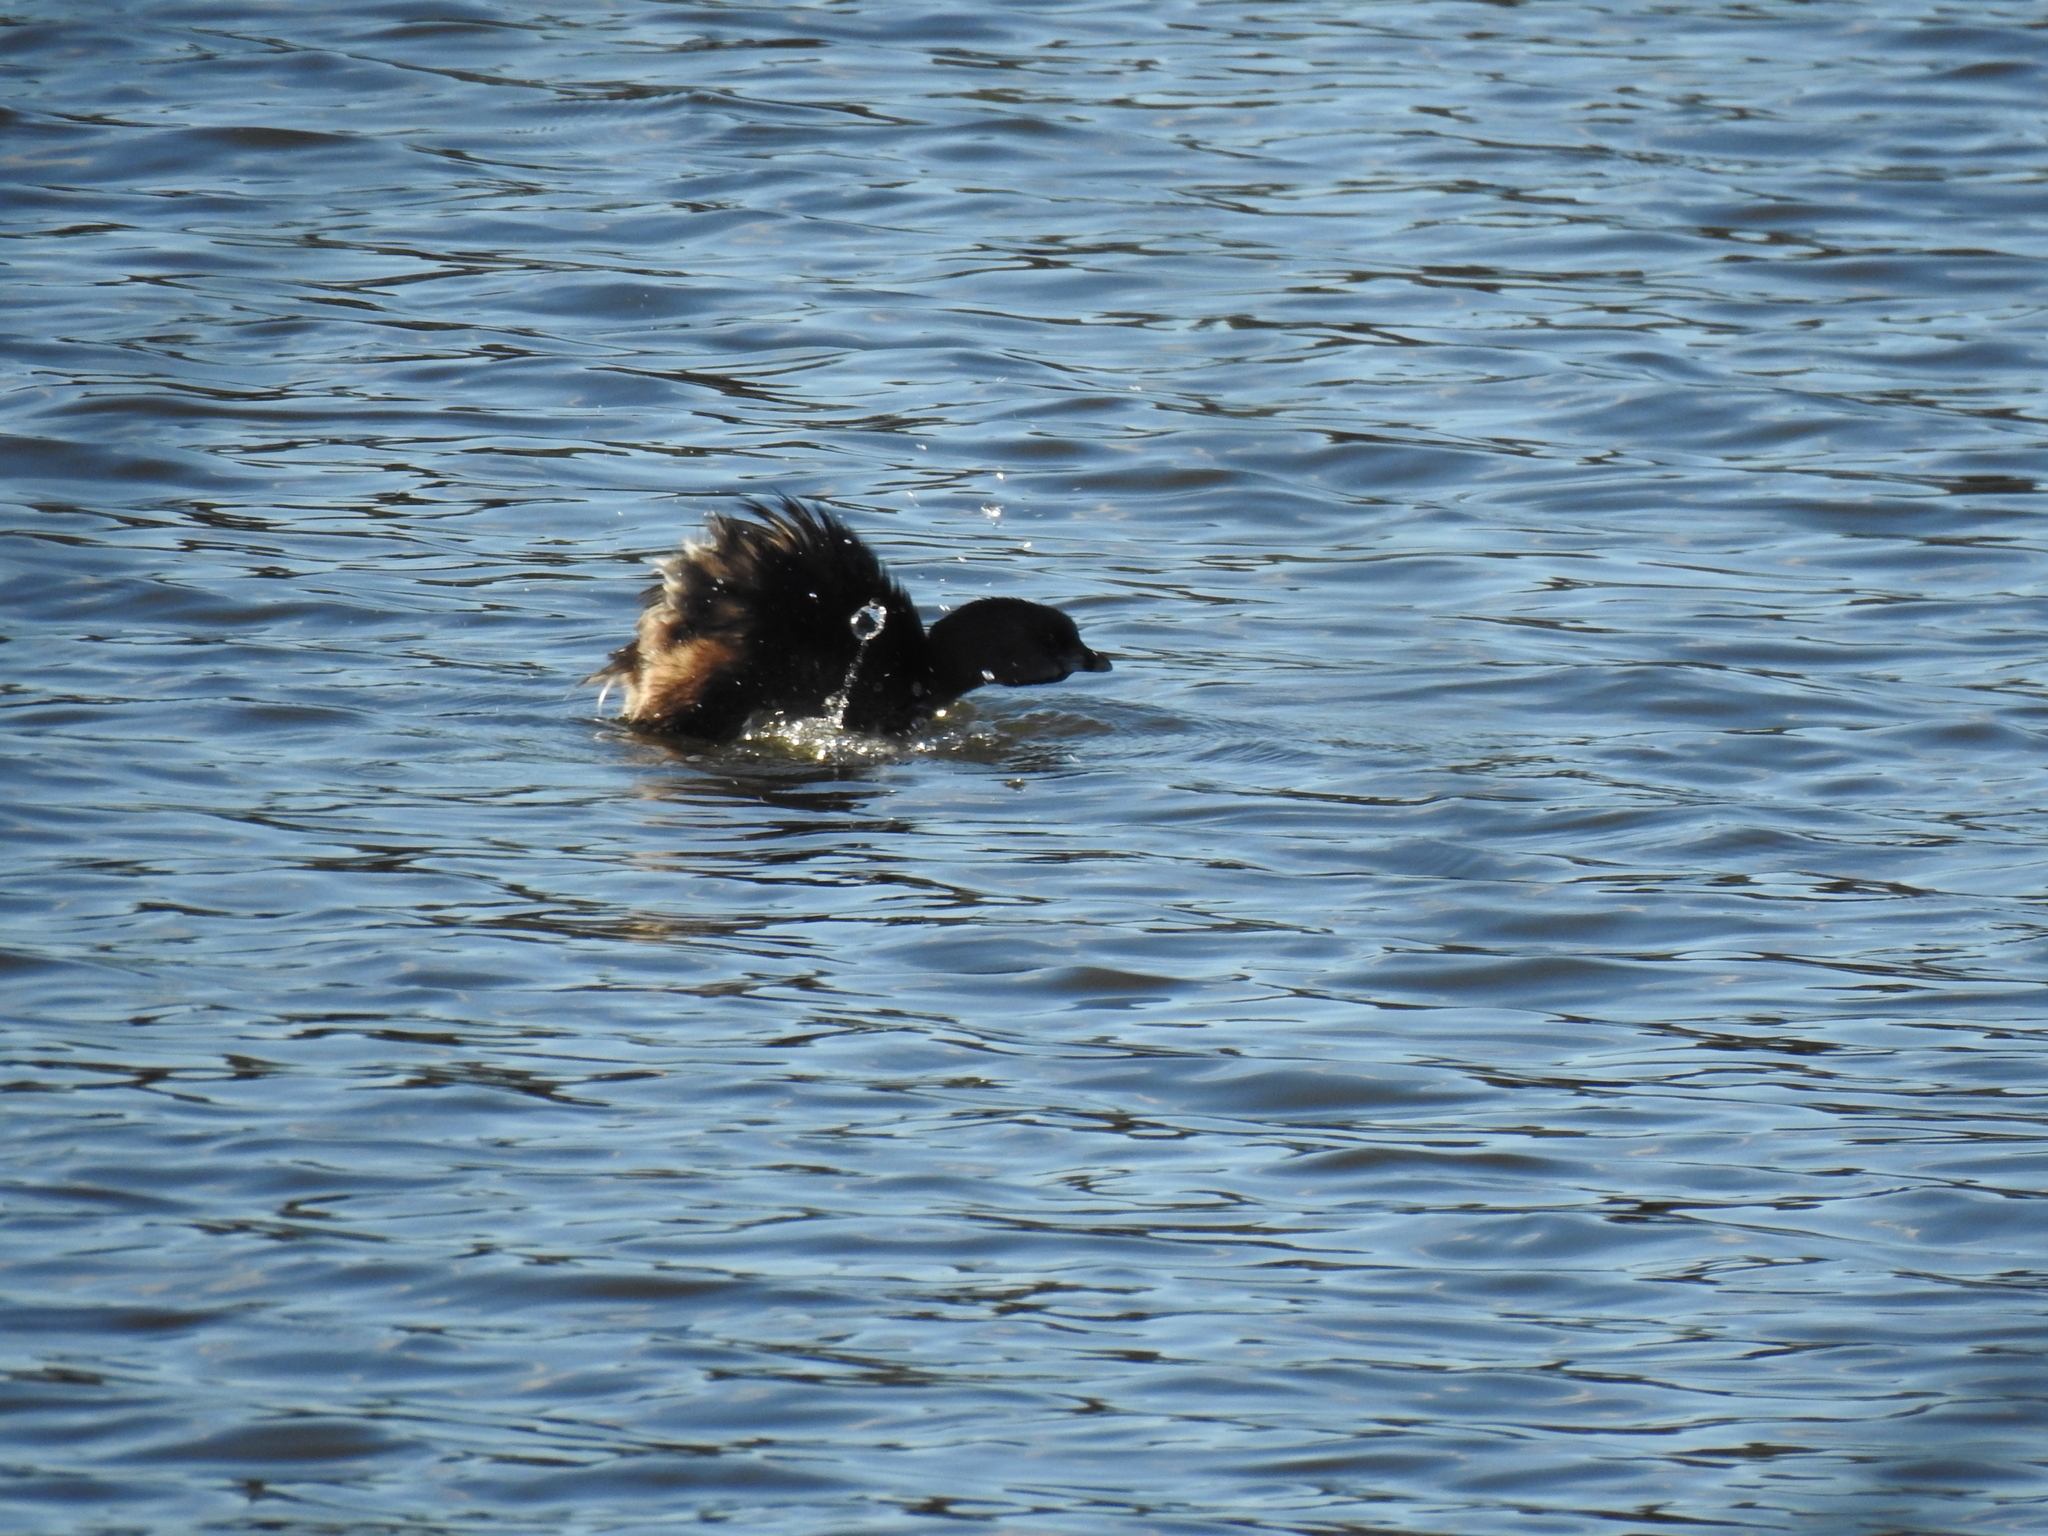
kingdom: Animalia
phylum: Chordata
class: Aves
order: Podicipediformes
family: Podicipedidae
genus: Podilymbus
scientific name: Podilymbus podiceps
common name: Pied-billed grebe
